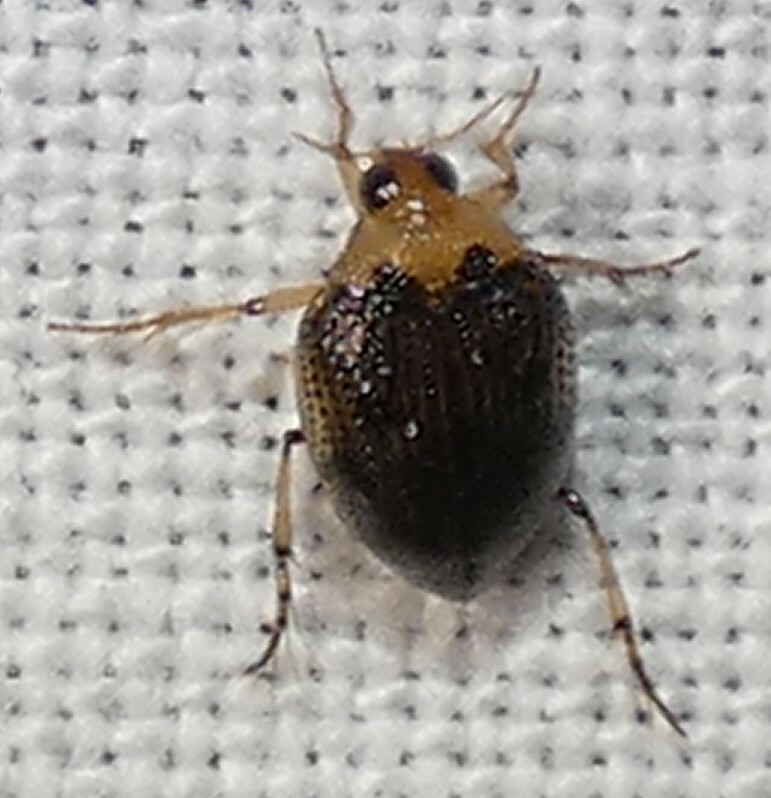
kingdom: Animalia
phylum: Arthropoda
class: Insecta
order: Coleoptera
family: Haliplidae
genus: Peltodytes
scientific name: Peltodytes
